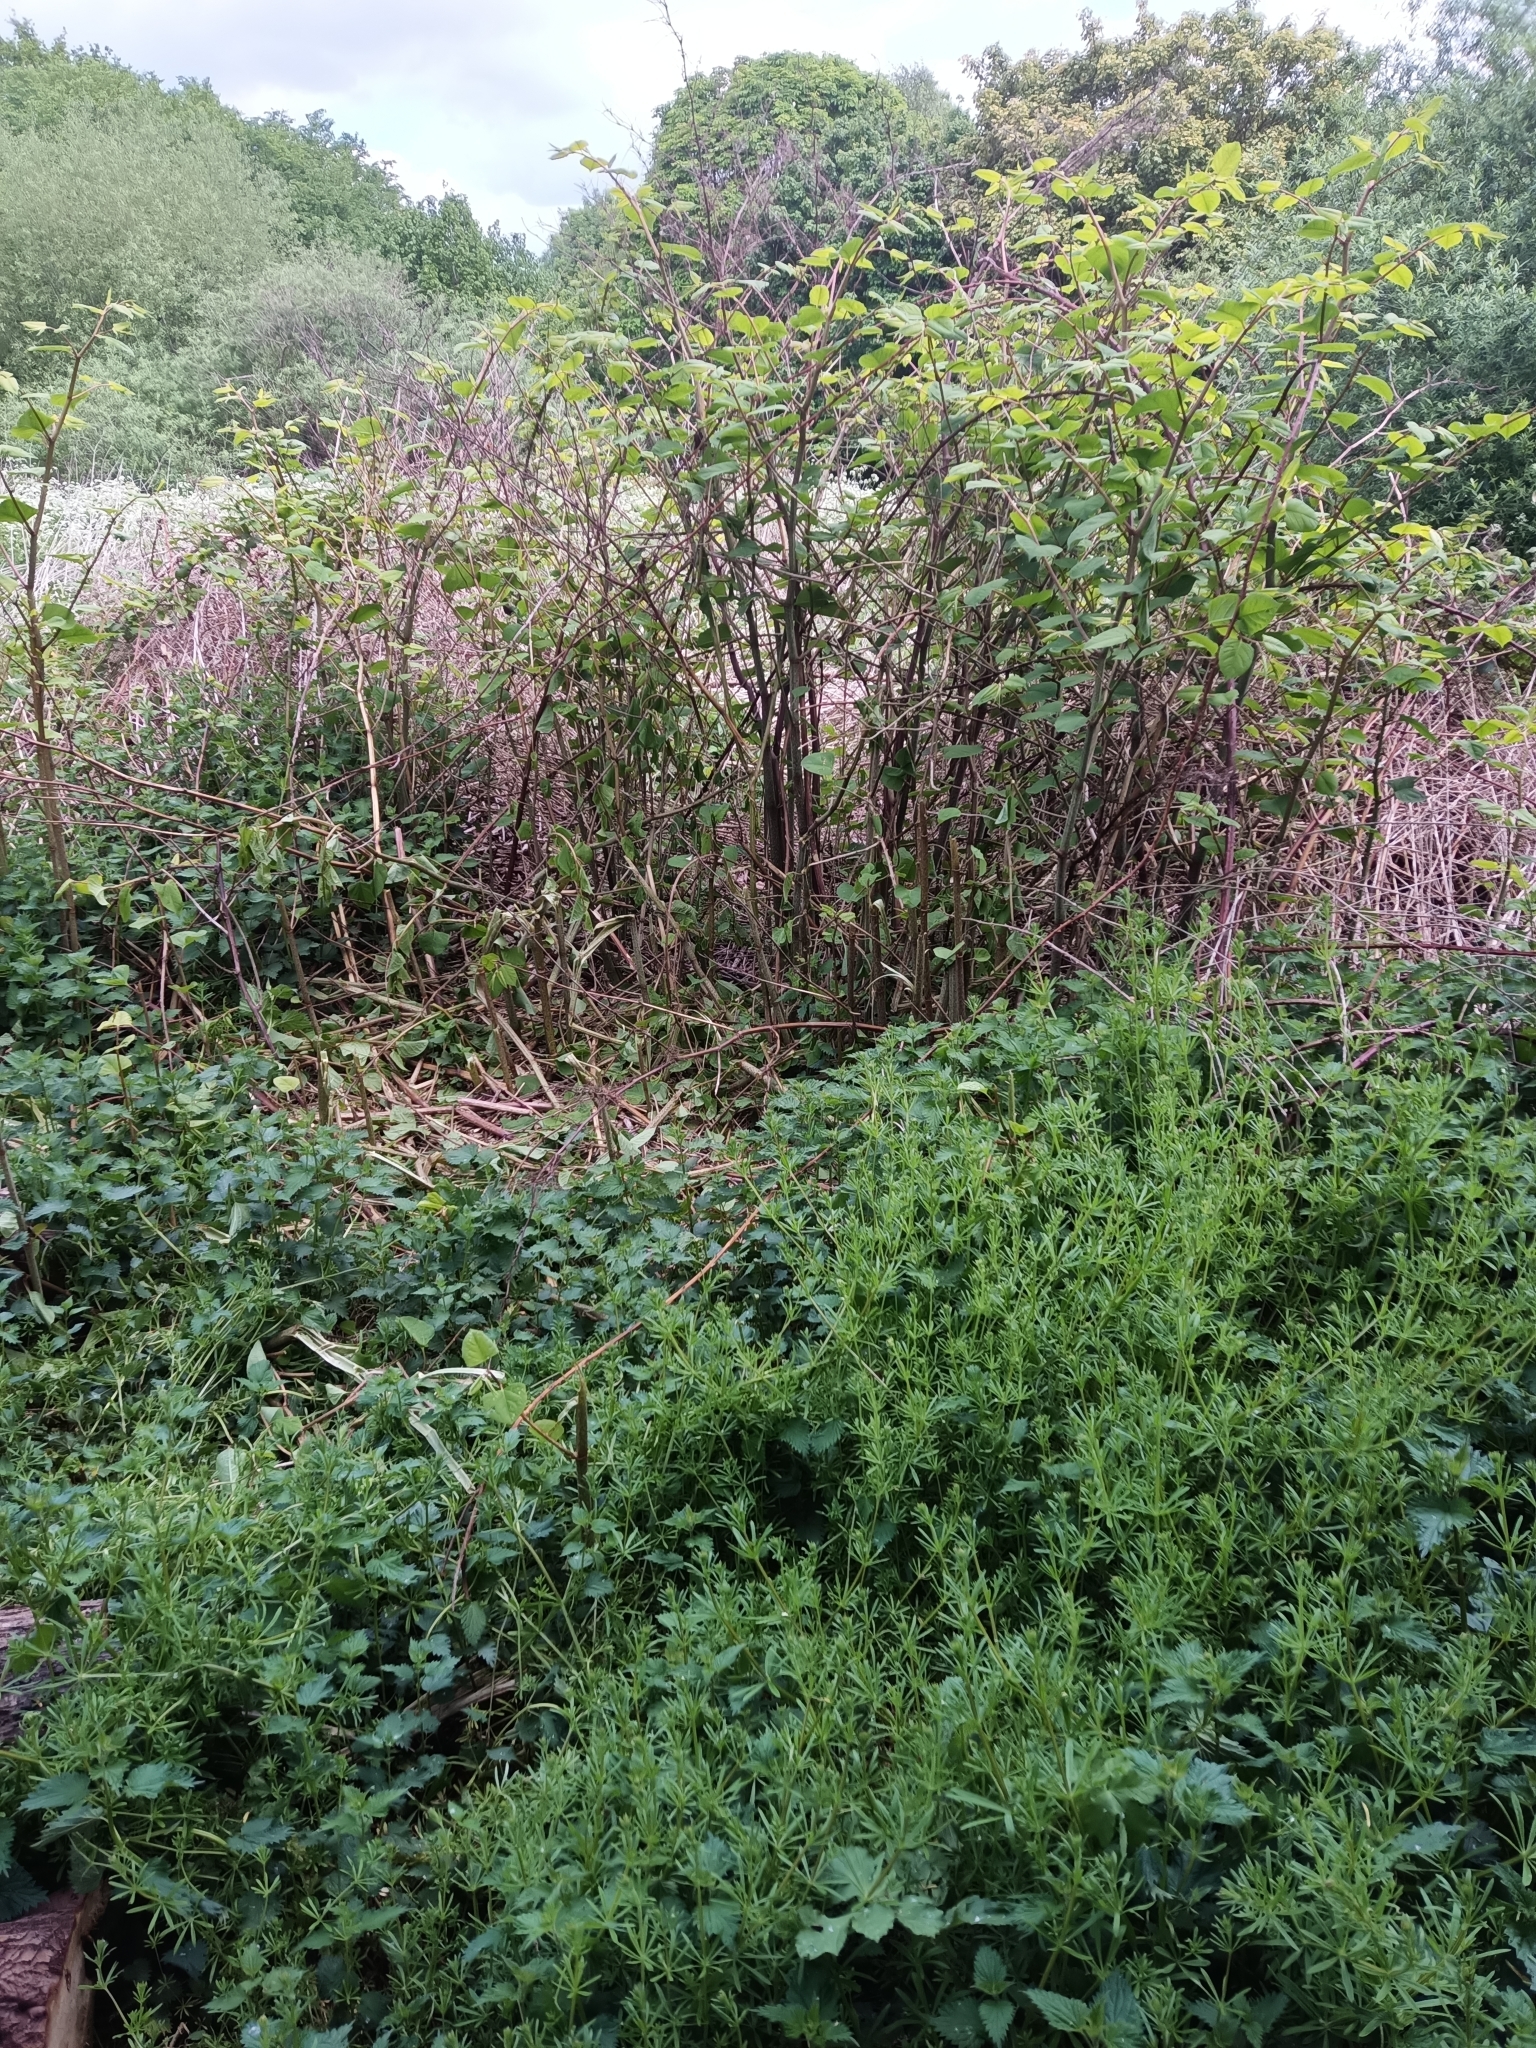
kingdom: Plantae
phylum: Tracheophyta
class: Magnoliopsida
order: Caryophyllales
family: Polygonaceae
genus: Reynoutria
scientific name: Reynoutria japonica
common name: Japanese knotweed
